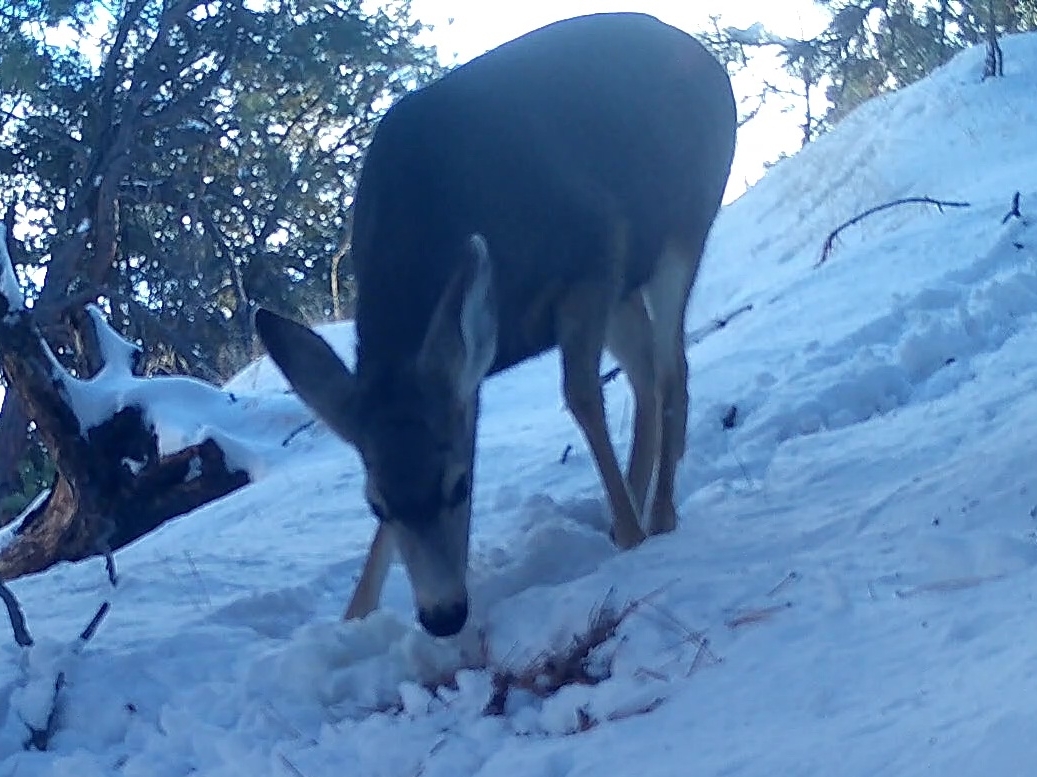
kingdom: Animalia
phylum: Chordata
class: Mammalia
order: Artiodactyla
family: Cervidae
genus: Odocoileus
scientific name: Odocoileus hemionus
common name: Mule deer
